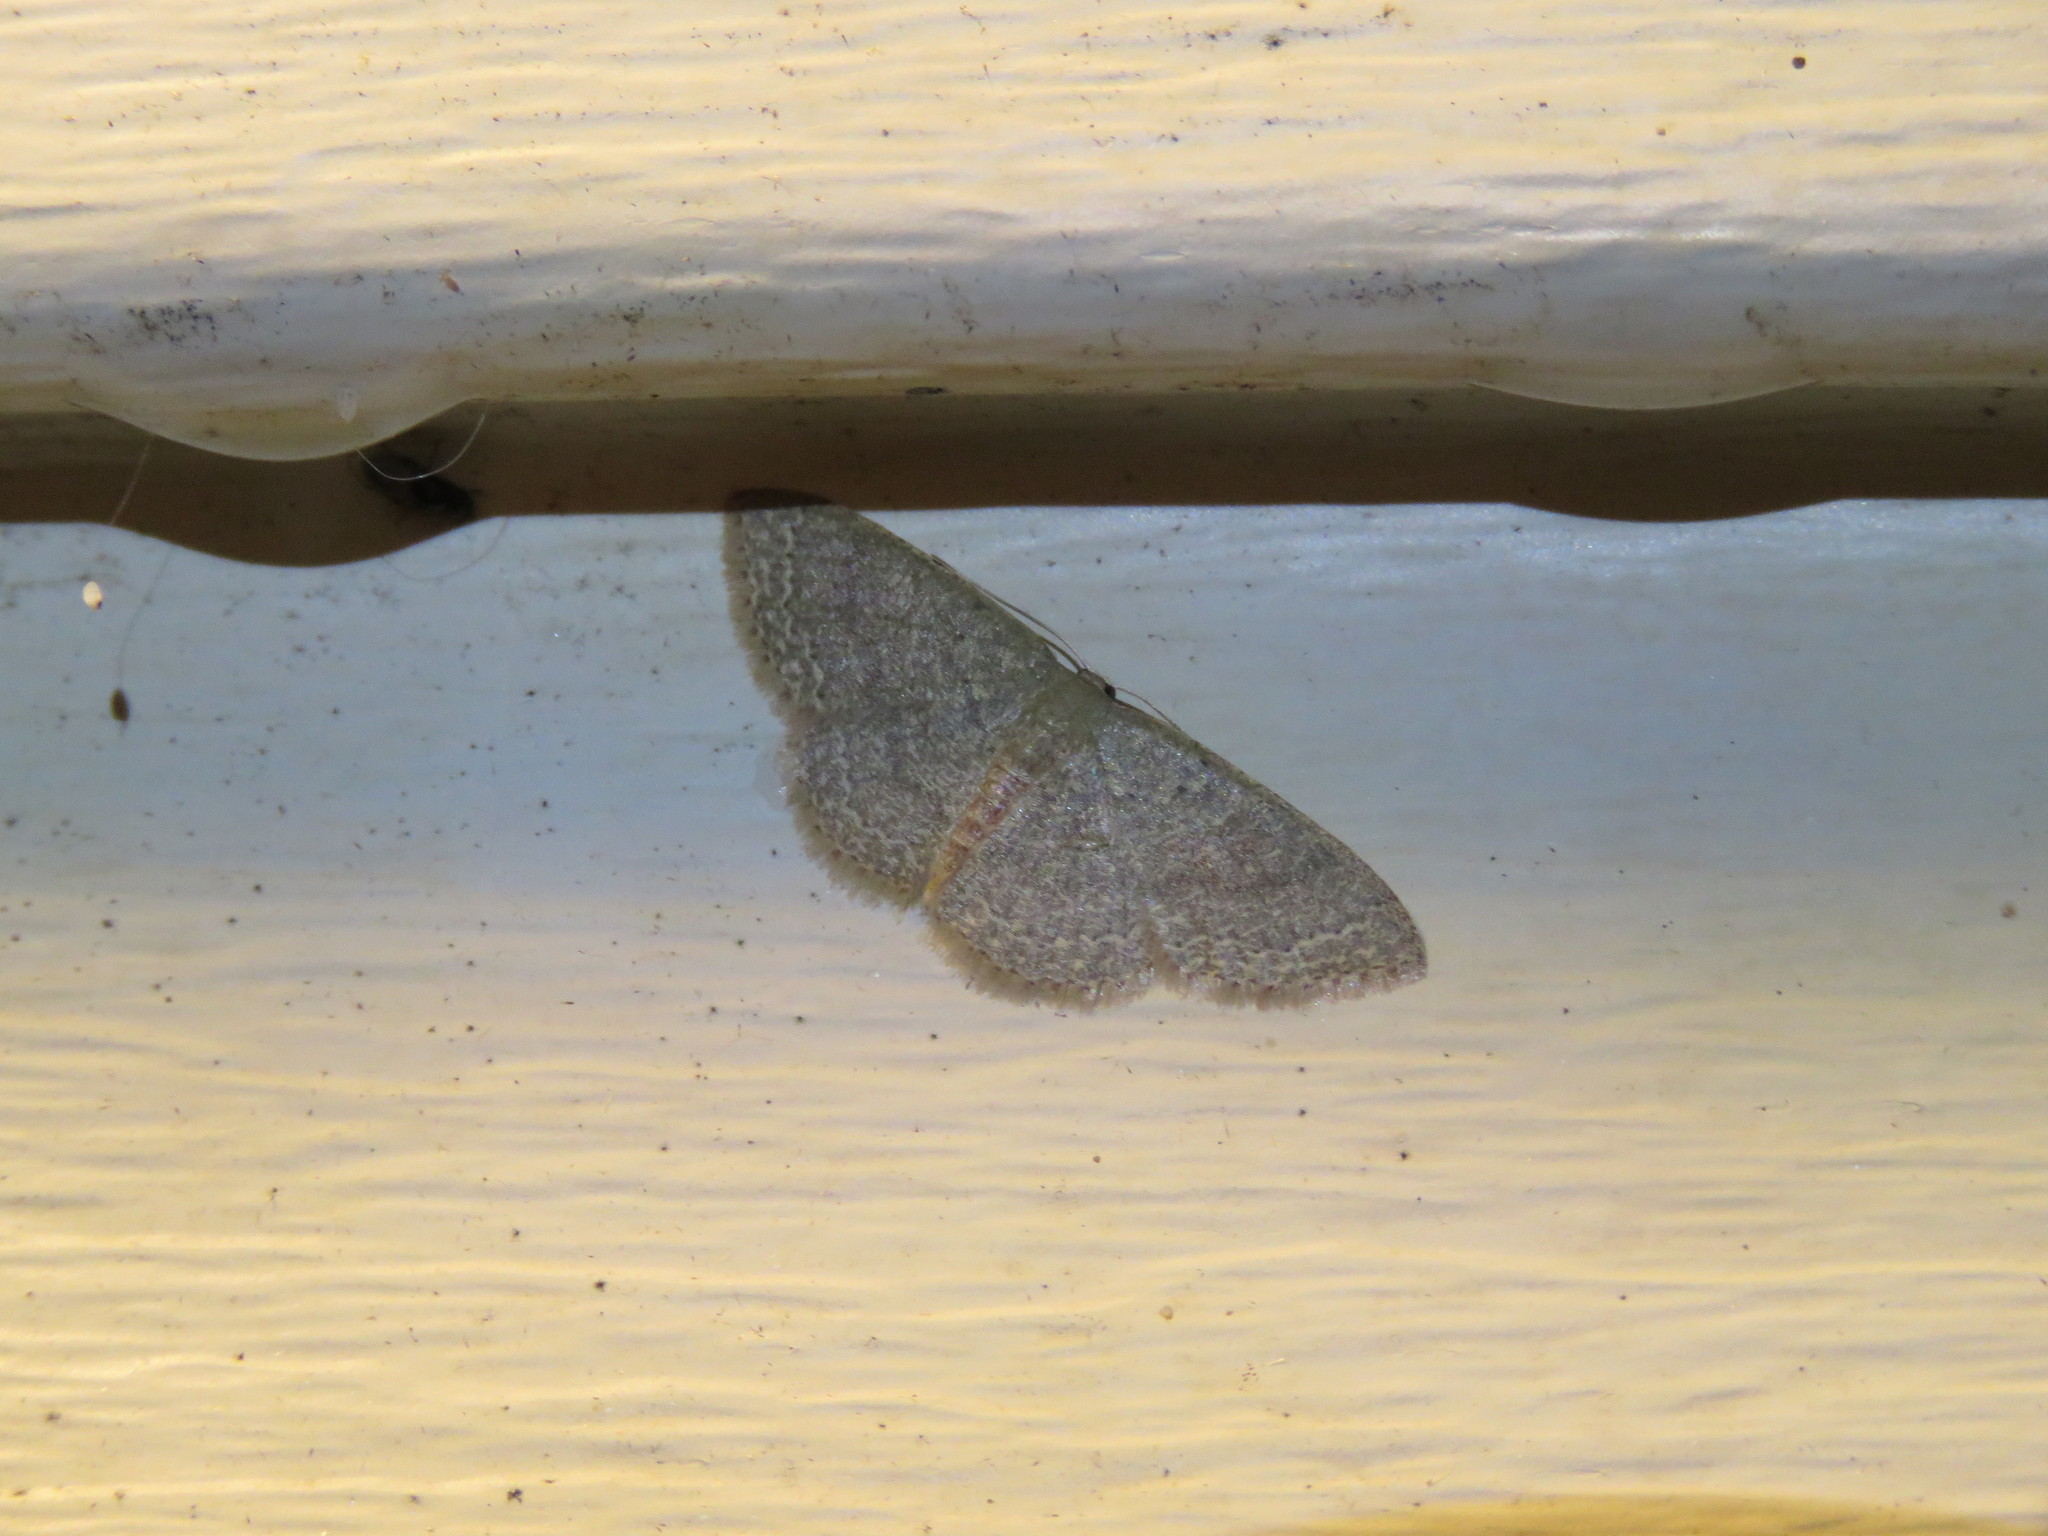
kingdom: Animalia
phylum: Arthropoda
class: Insecta
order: Lepidoptera
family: Geometridae
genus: Pleuroprucha
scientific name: Pleuroprucha insulsaria
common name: Common tan wave
